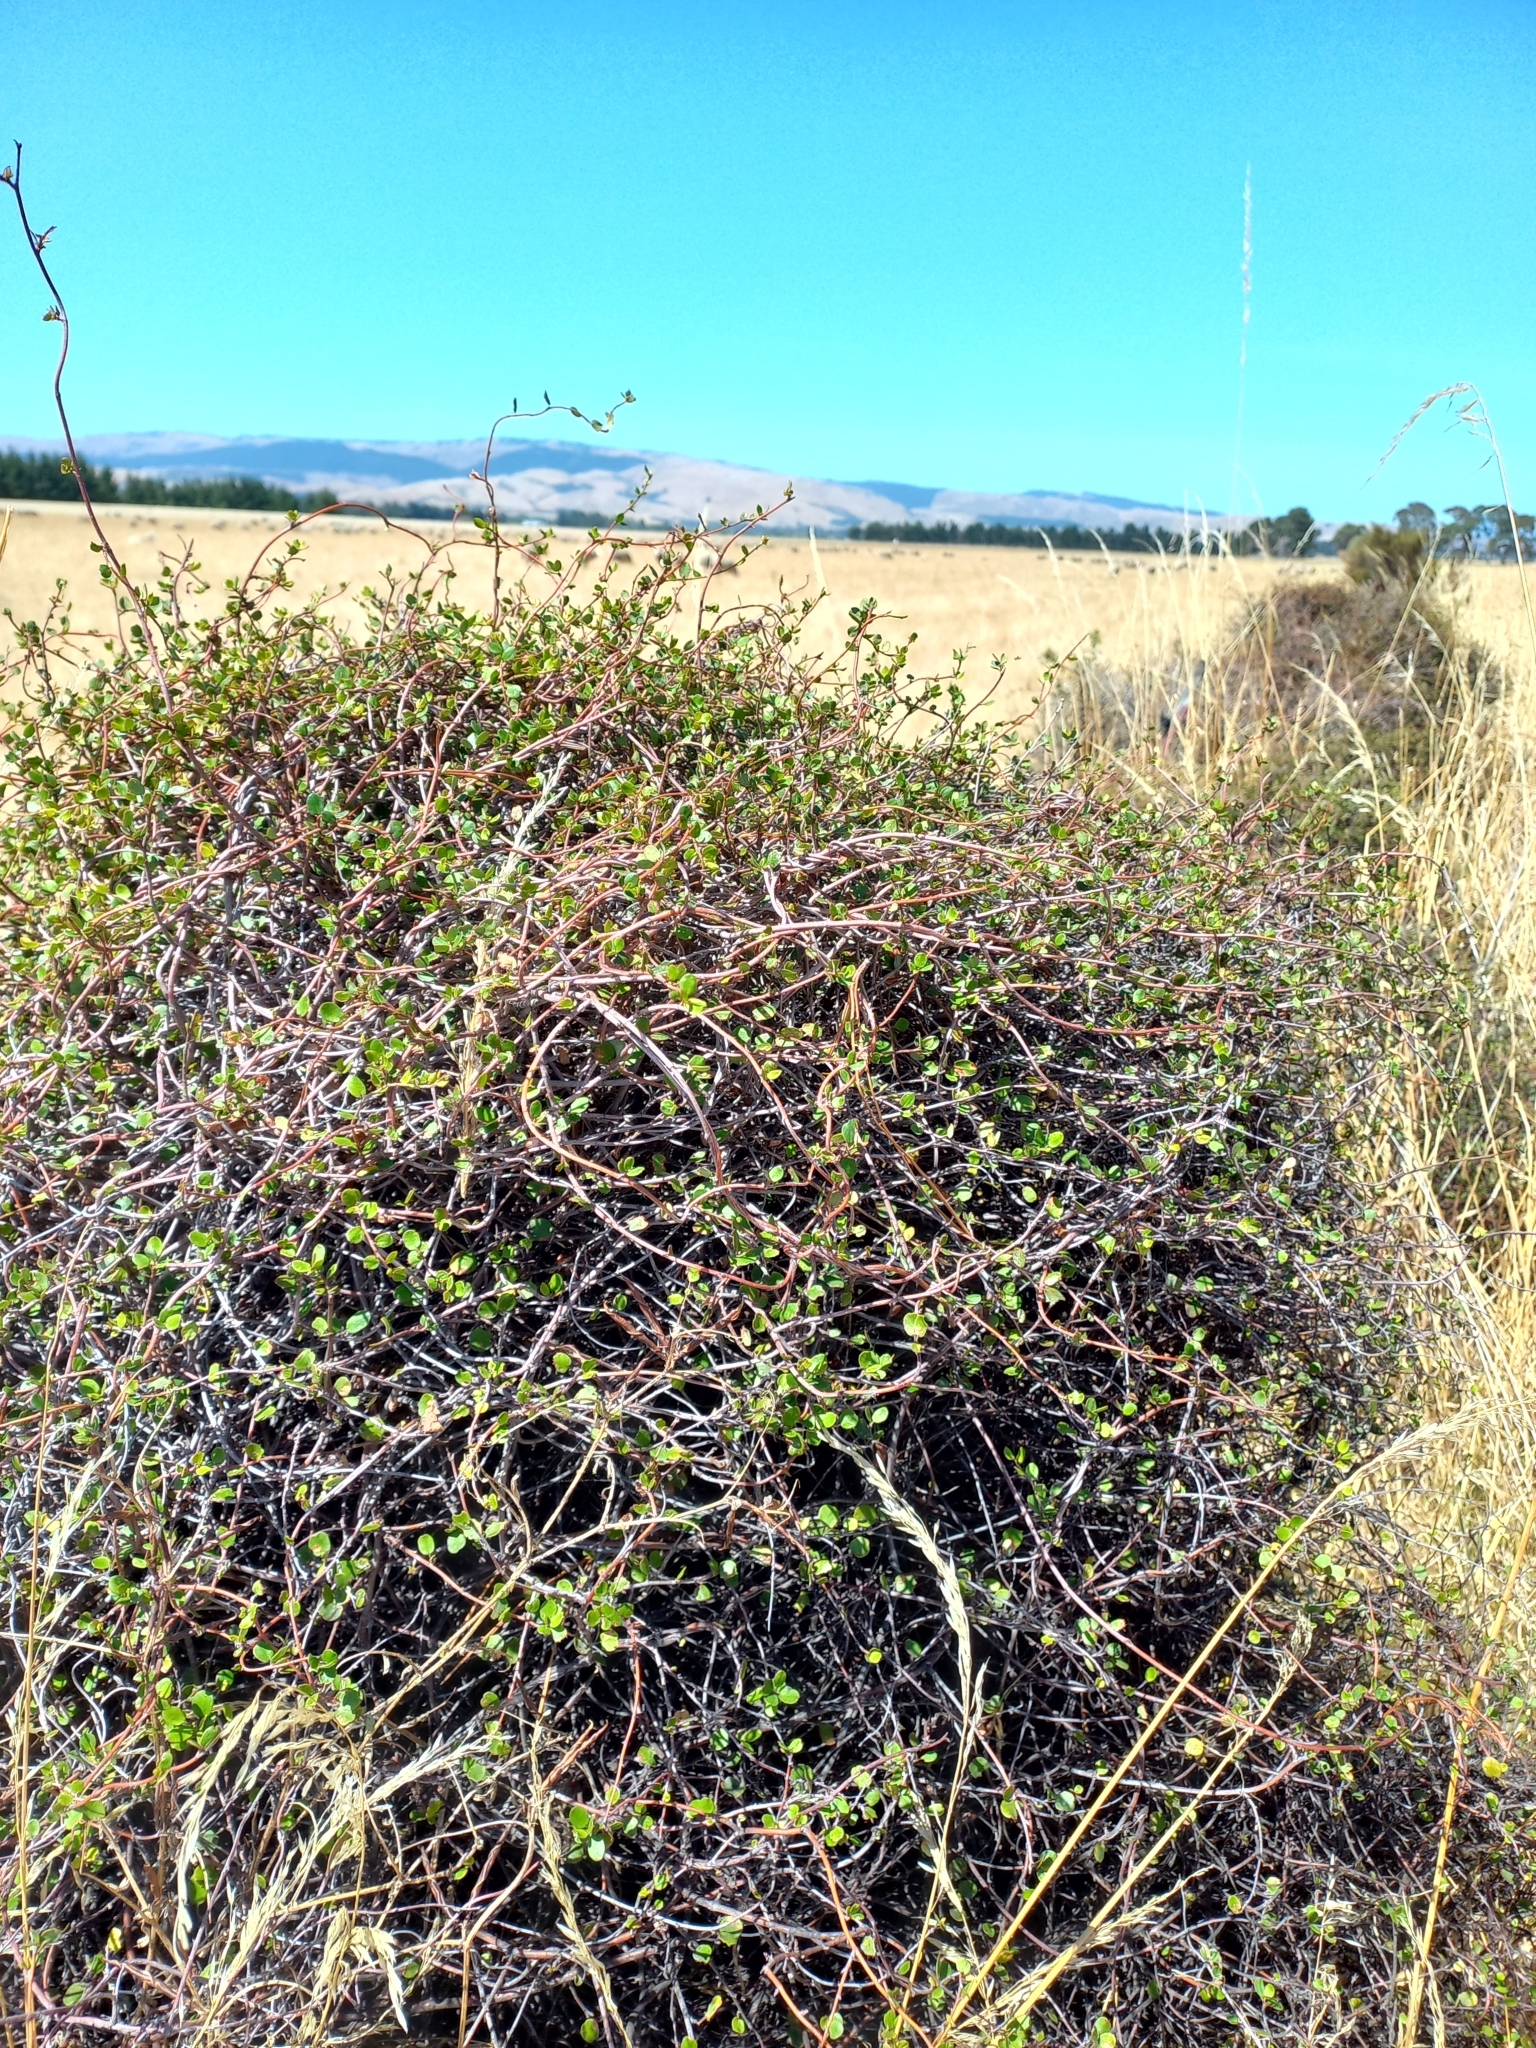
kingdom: Plantae
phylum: Tracheophyta
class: Magnoliopsida
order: Caryophyllales
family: Polygonaceae
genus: Muehlenbeckia
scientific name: Muehlenbeckia complexa
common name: Wireplant
